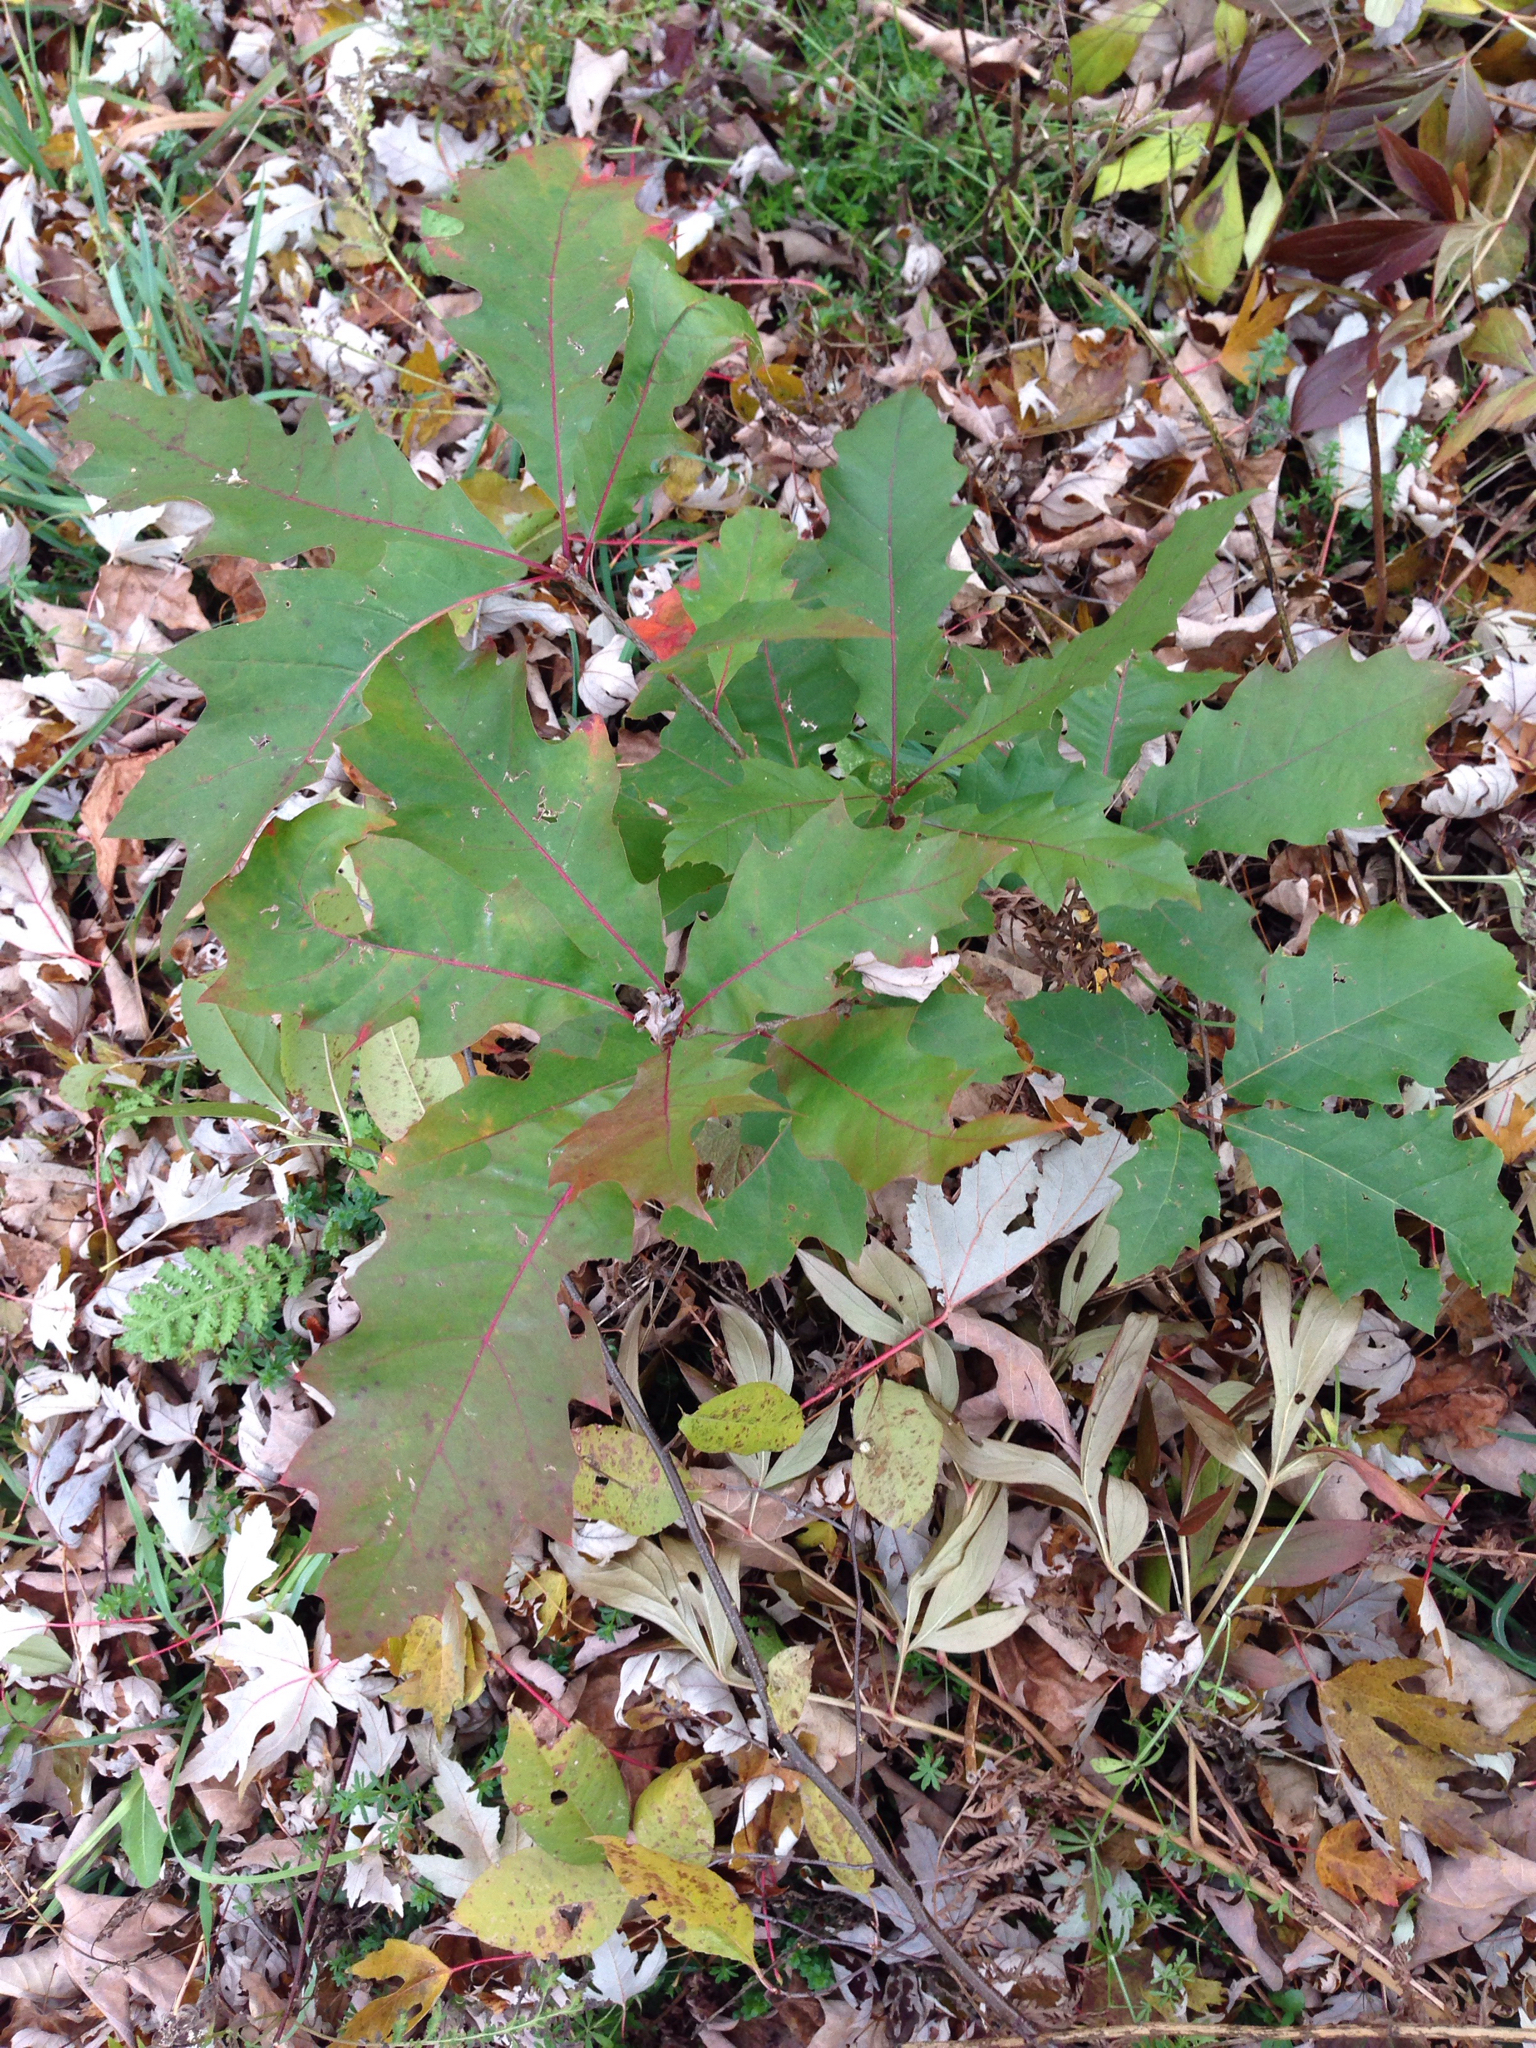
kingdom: Plantae
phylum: Tracheophyta
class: Magnoliopsida
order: Fagales
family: Fagaceae
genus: Quercus
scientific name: Quercus rubra
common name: Red oak
